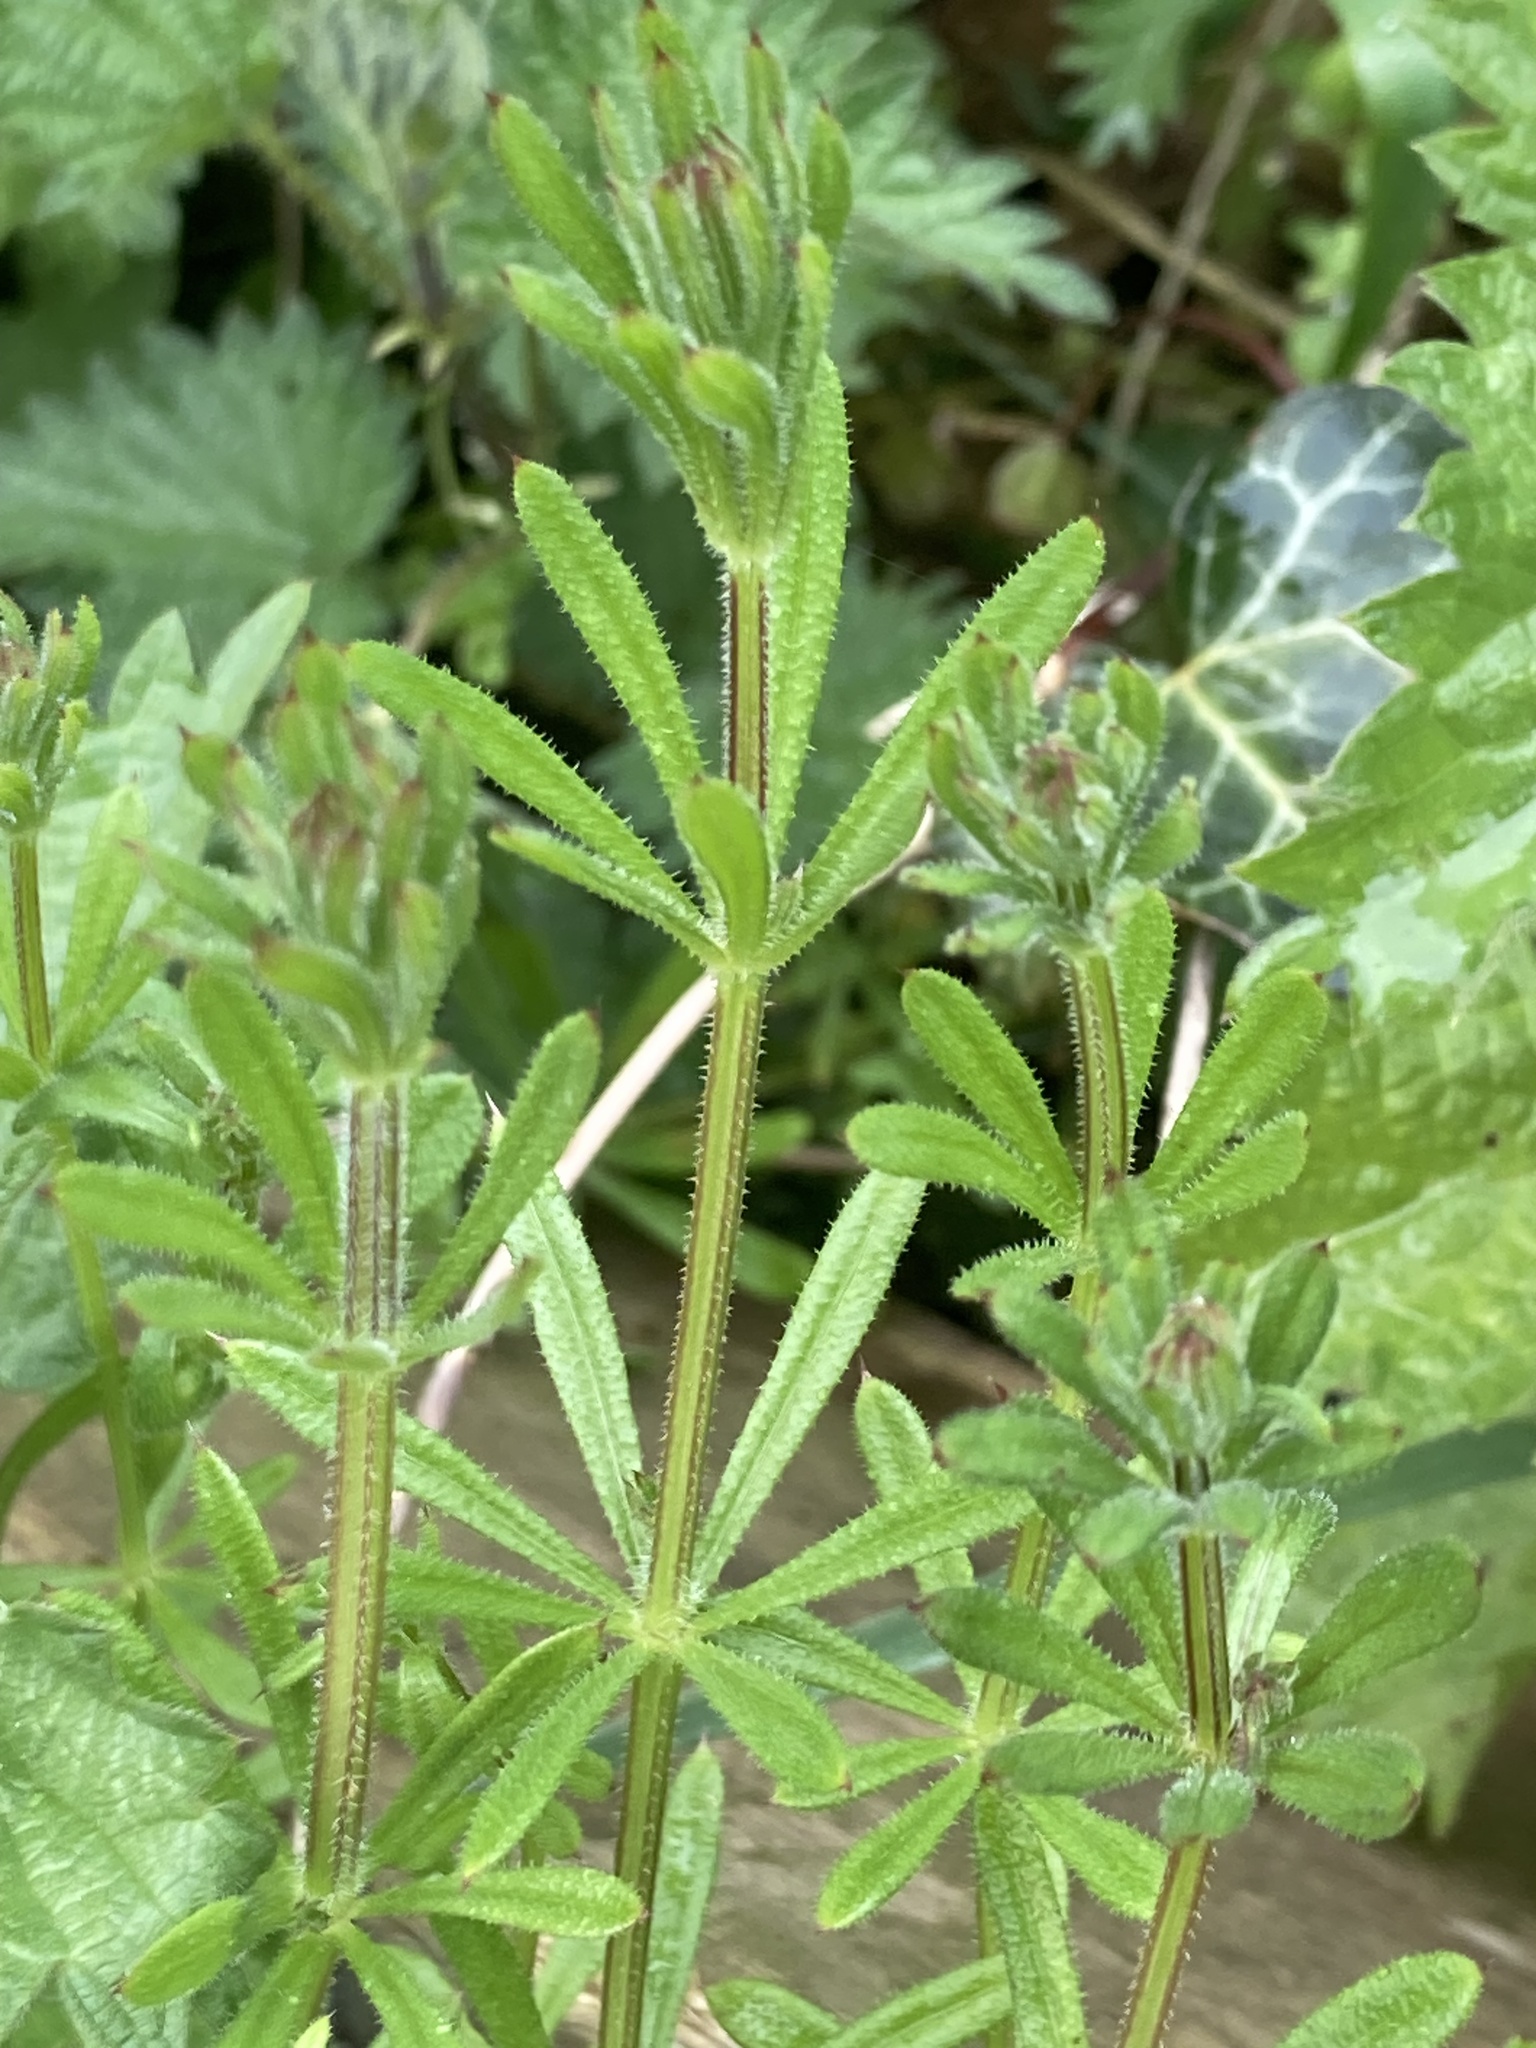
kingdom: Plantae
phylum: Tracheophyta
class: Magnoliopsida
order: Gentianales
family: Rubiaceae
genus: Galium
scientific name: Galium aparine
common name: Cleavers
